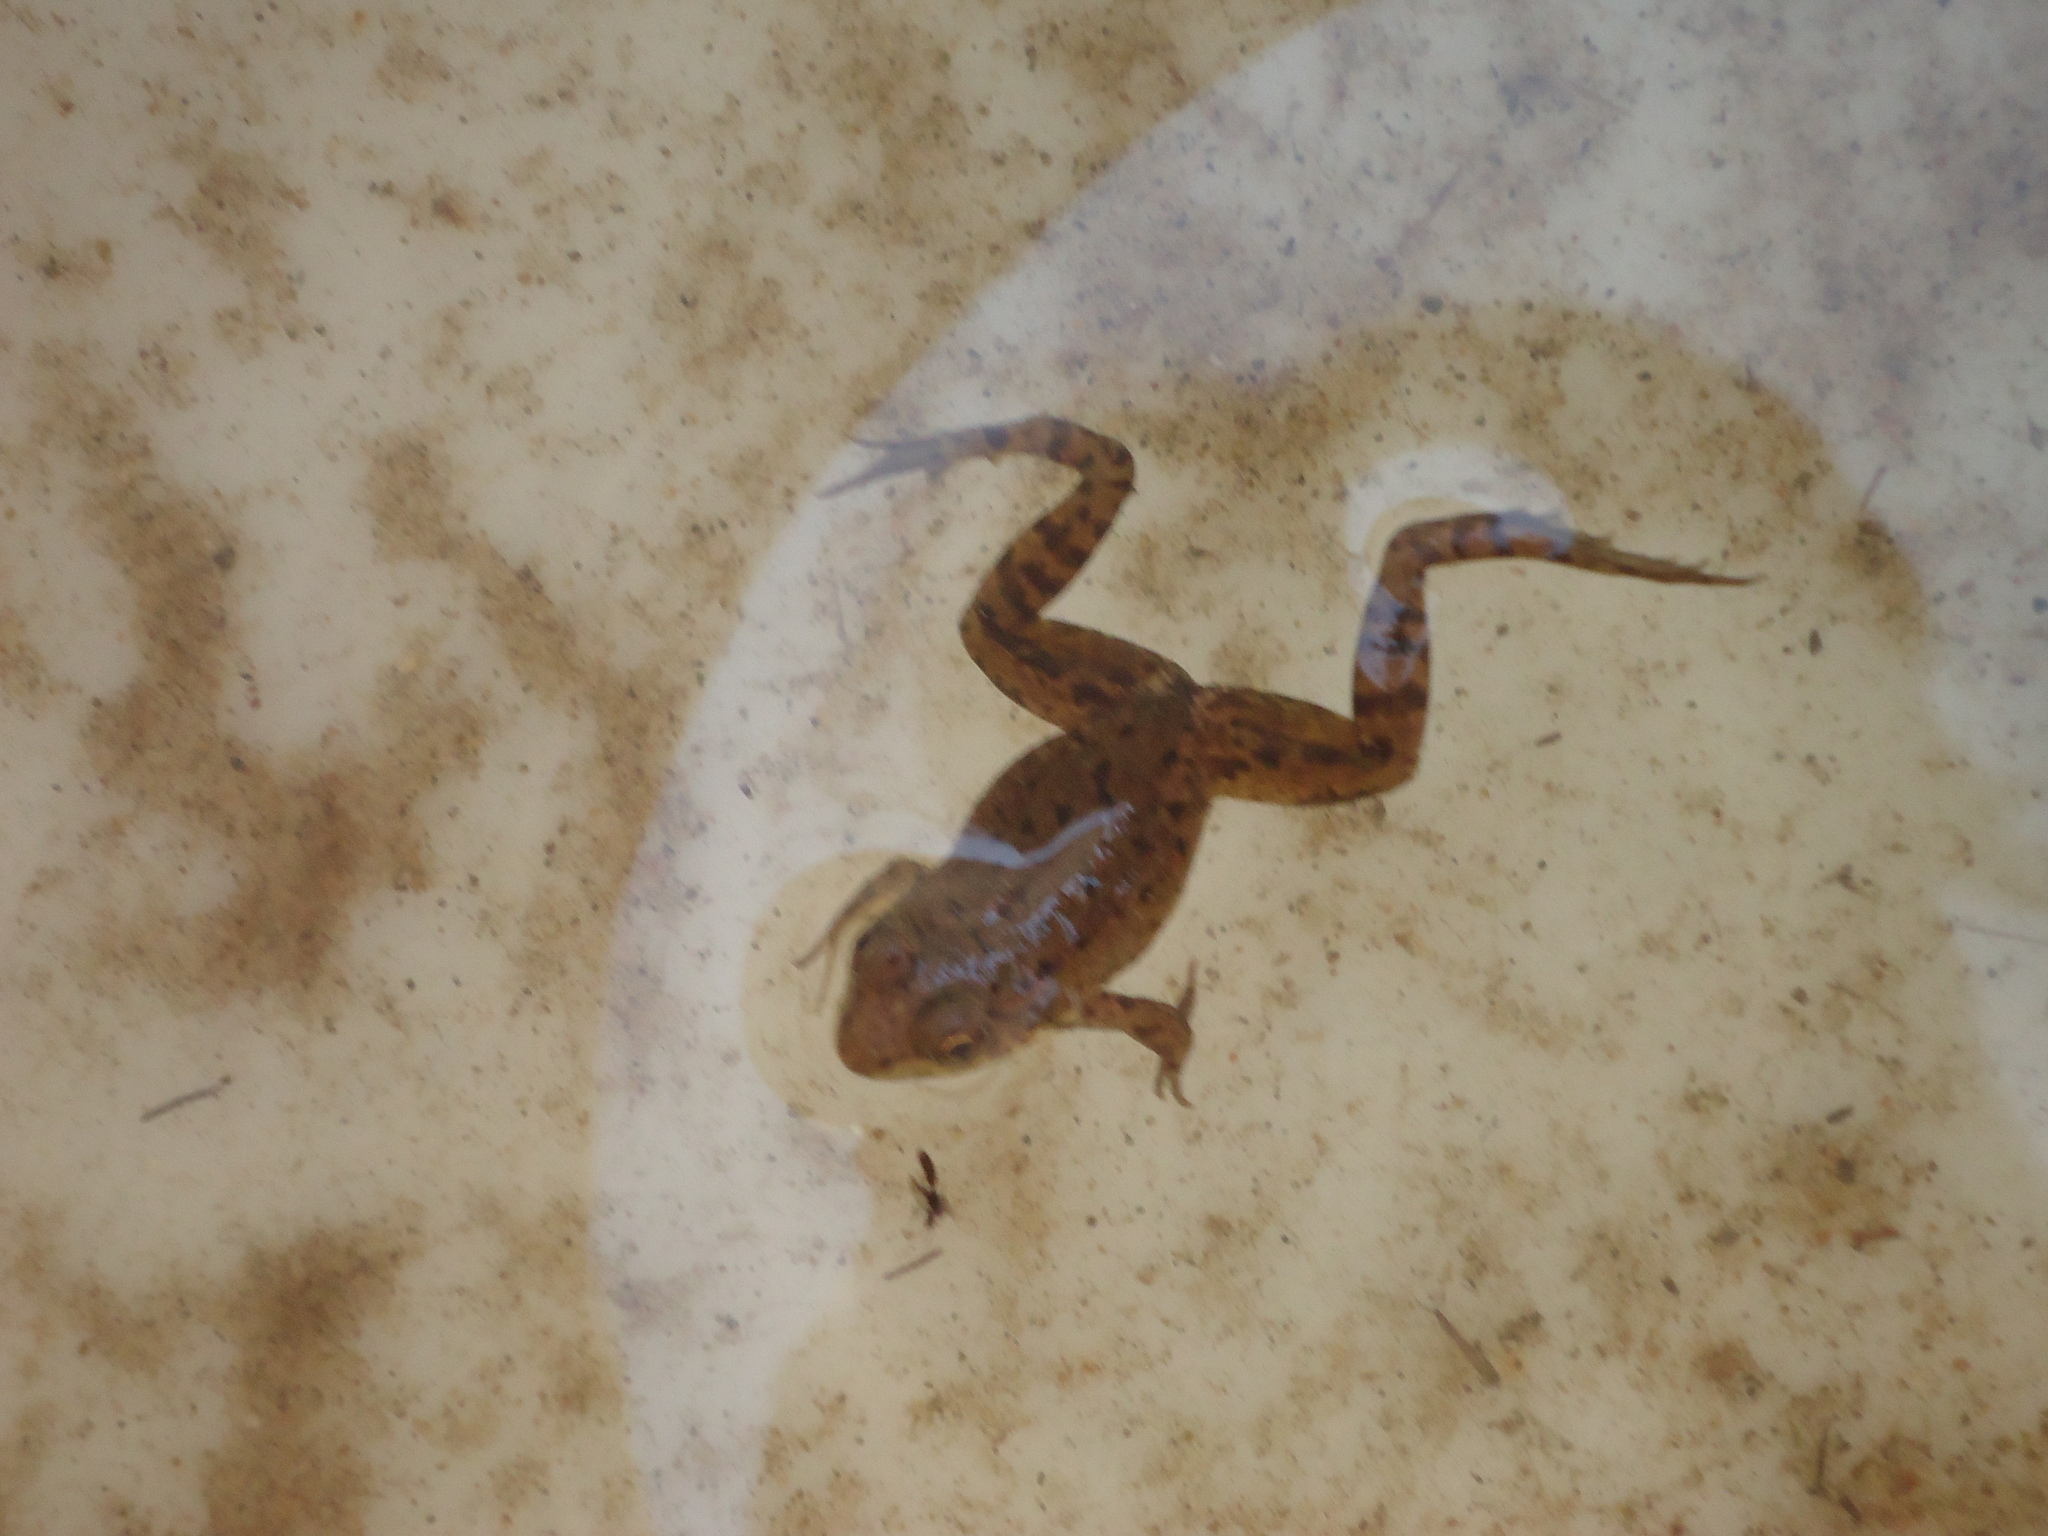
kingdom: Animalia
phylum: Chordata
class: Amphibia
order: Anura
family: Ranidae
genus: Lithobates
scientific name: Lithobates clamitans
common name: Green frog
